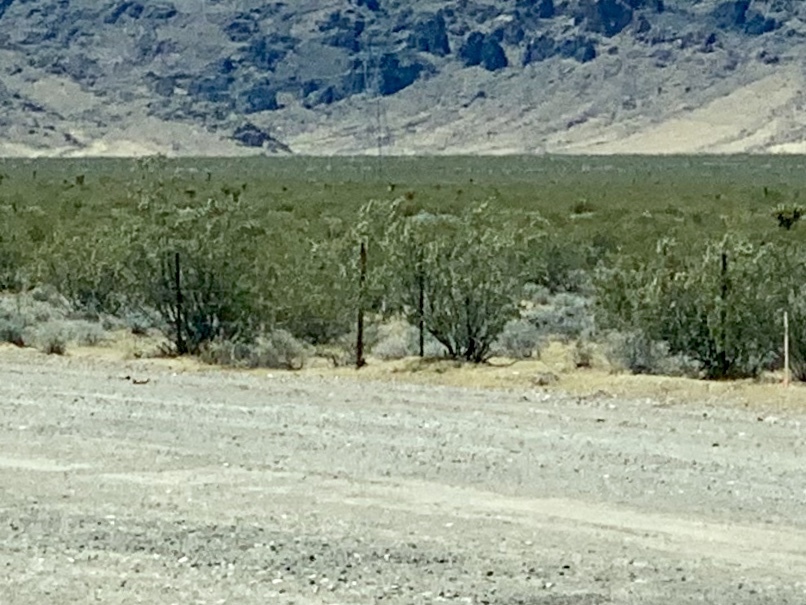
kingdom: Plantae
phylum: Tracheophyta
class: Magnoliopsida
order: Zygophyllales
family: Zygophyllaceae
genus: Larrea
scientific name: Larrea tridentata
